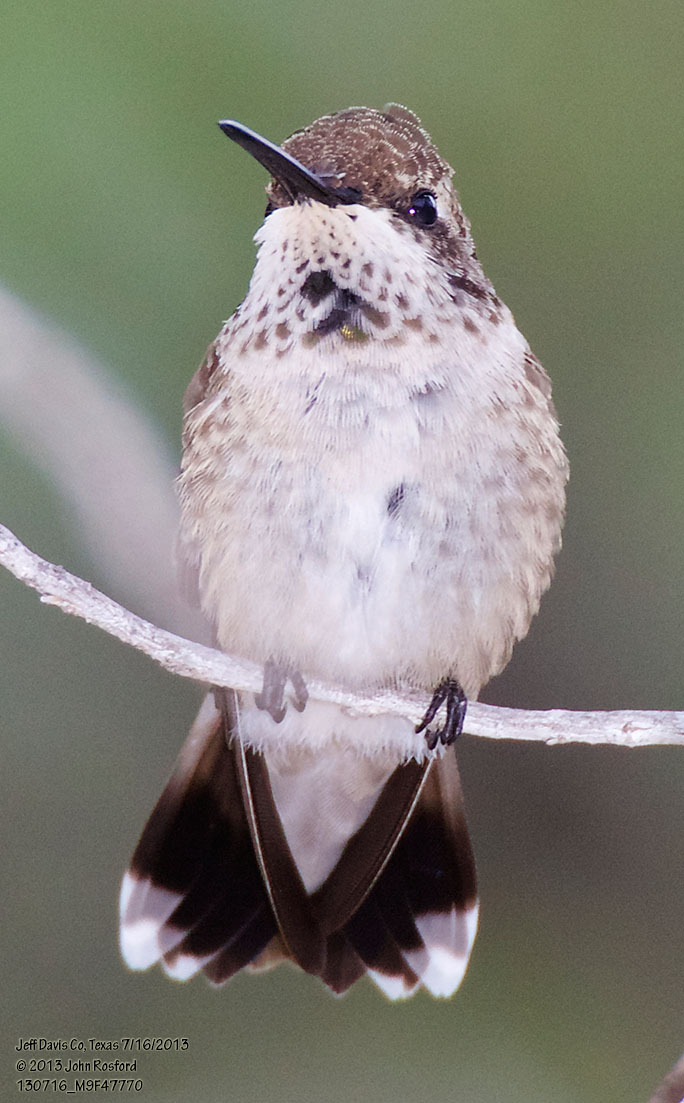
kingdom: Animalia
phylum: Chordata
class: Aves
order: Apodiformes
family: Trochilidae
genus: Archilochus
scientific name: Archilochus alexandri
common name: Black-chinned hummingbird
